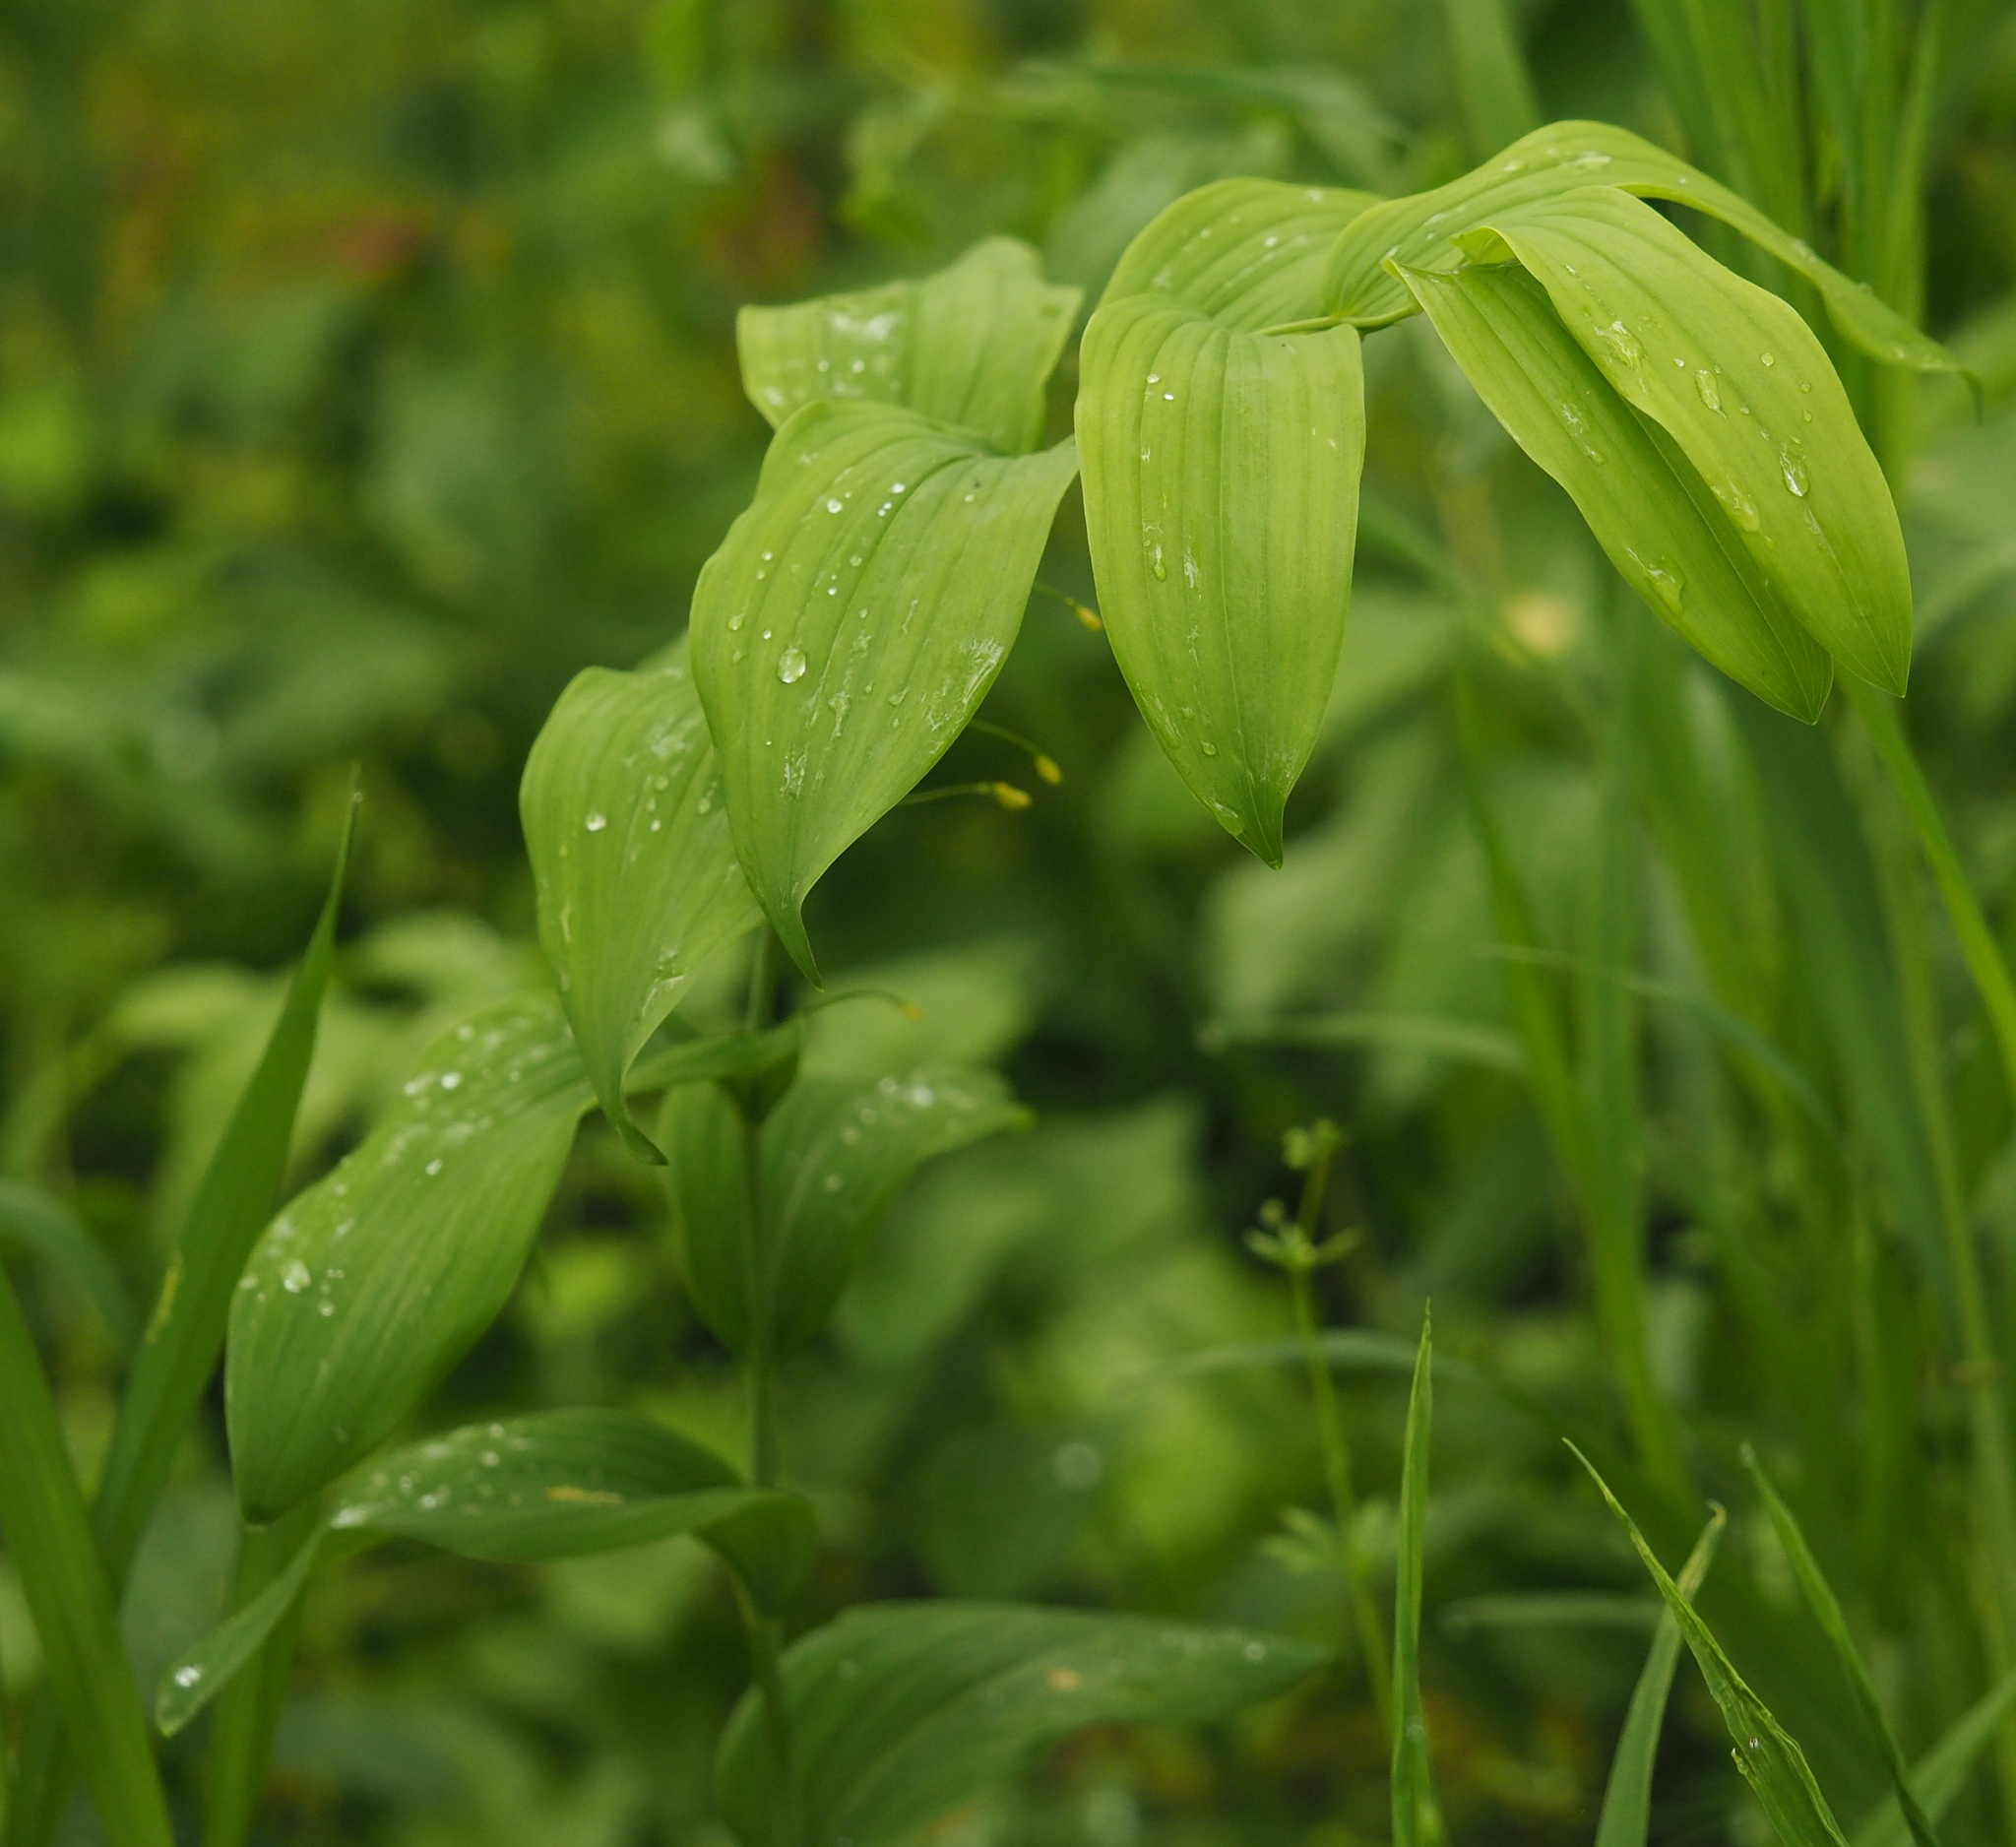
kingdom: Plantae
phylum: Tracheophyta
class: Liliopsida
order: Asparagales
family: Asparagaceae
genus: Polygonatum
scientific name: Polygonatum biflorum
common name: American solomon's-seal
